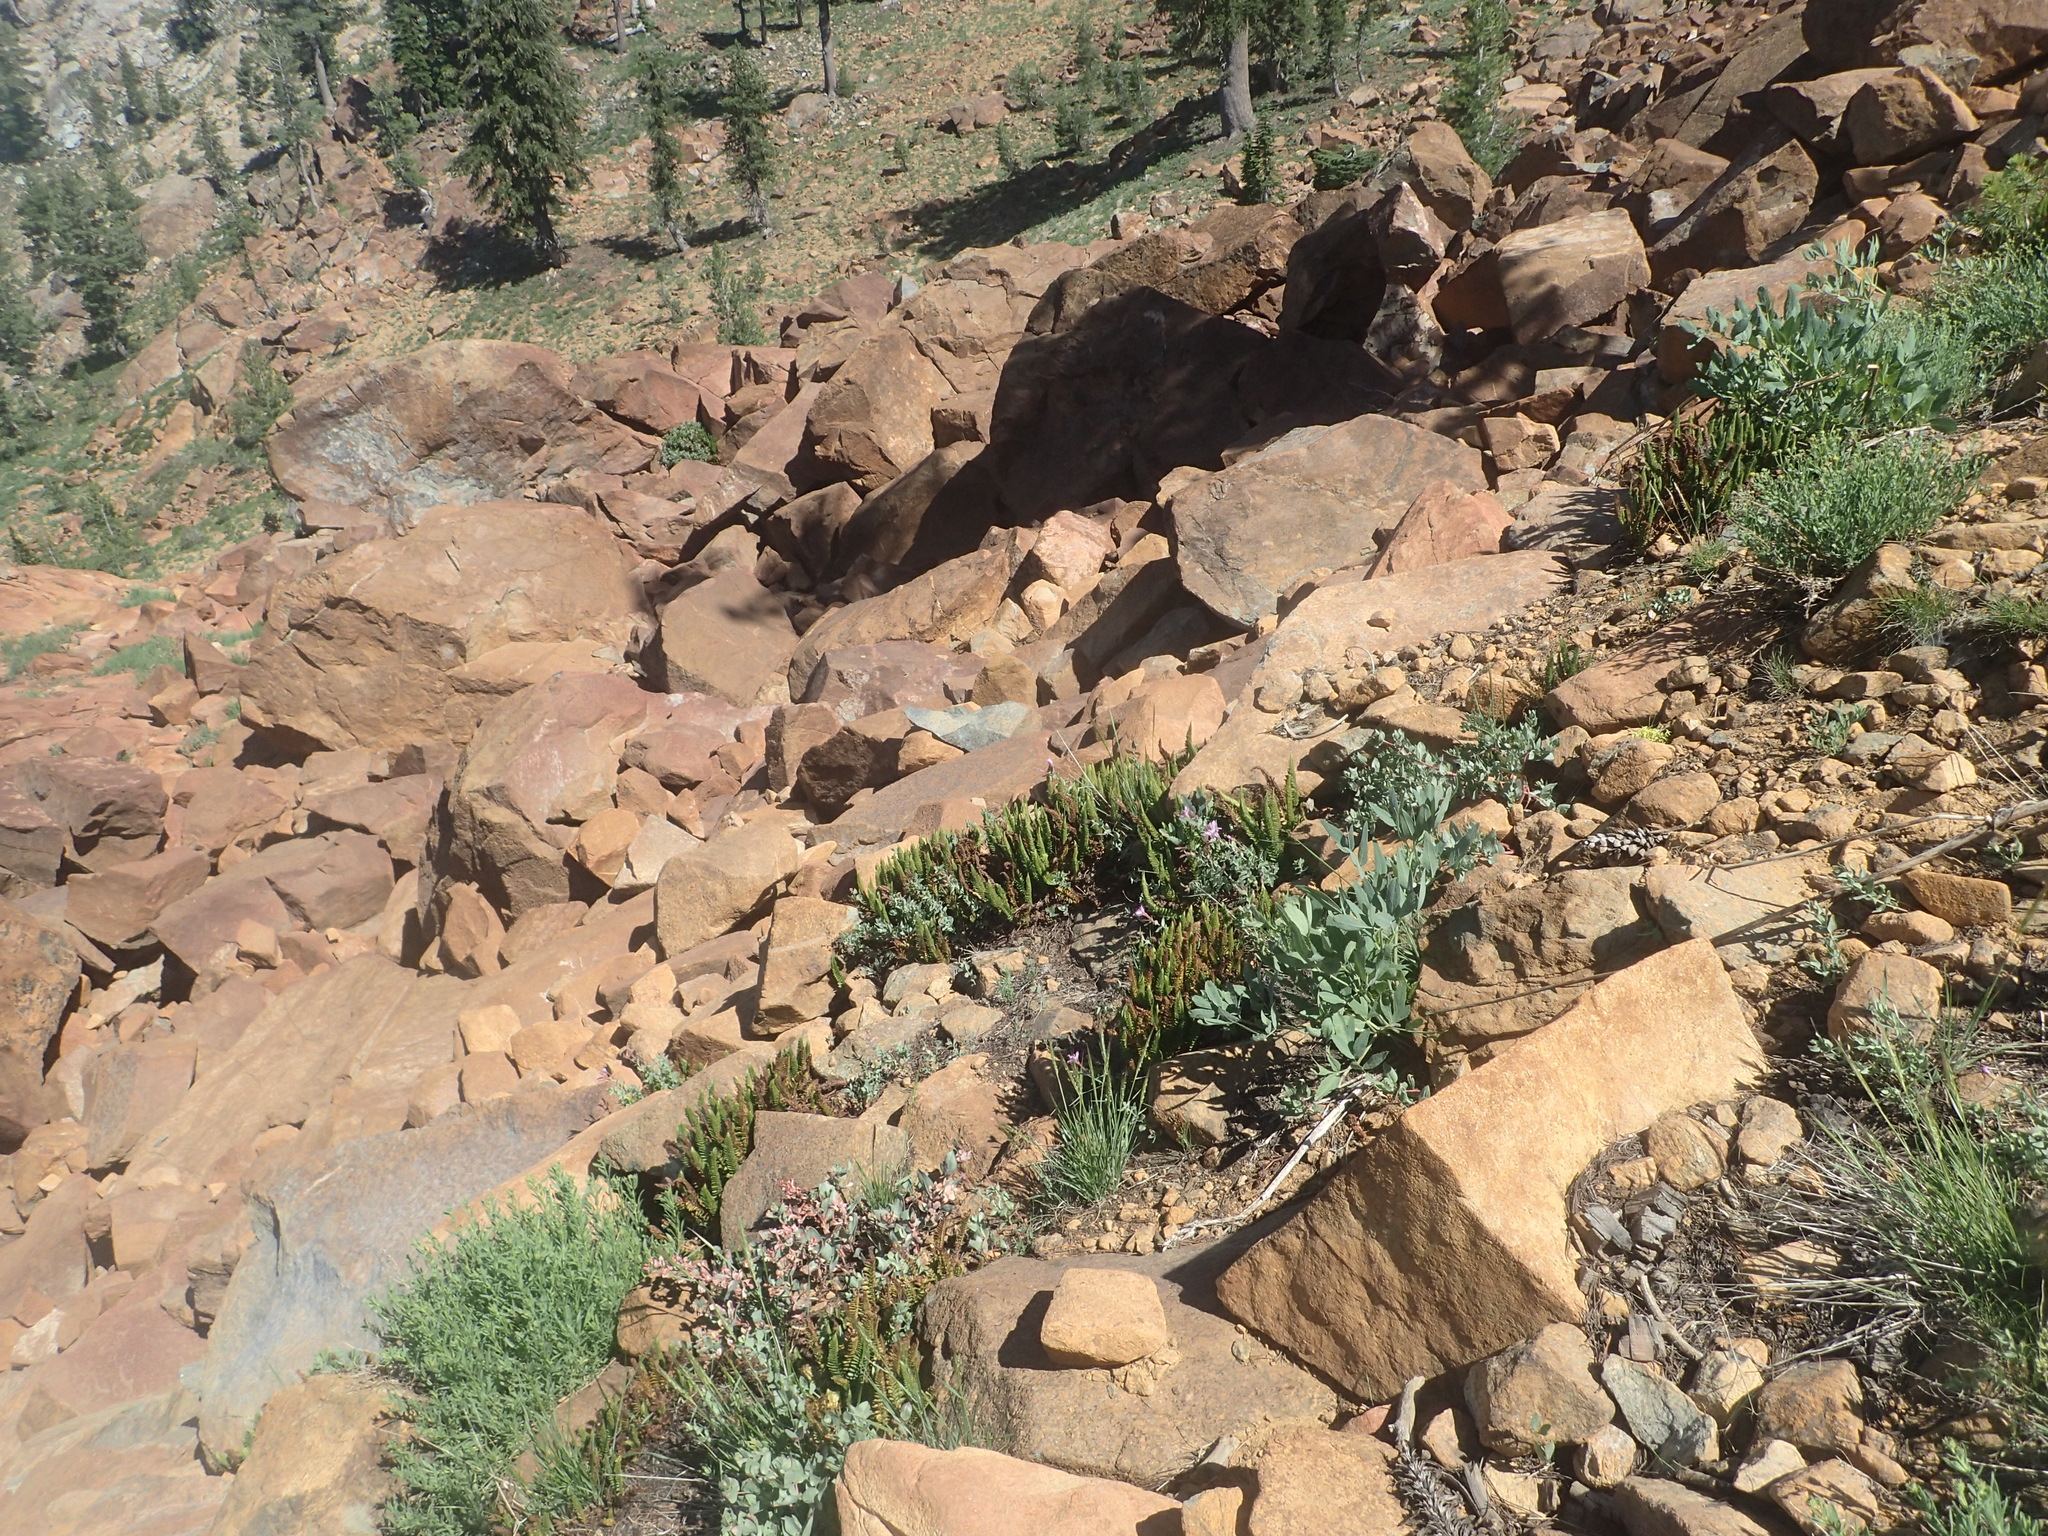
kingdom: Plantae
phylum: Tracheophyta
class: Magnoliopsida
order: Myrtales
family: Onagraceae
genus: Epilobium
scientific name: Epilobium siskiyouense
